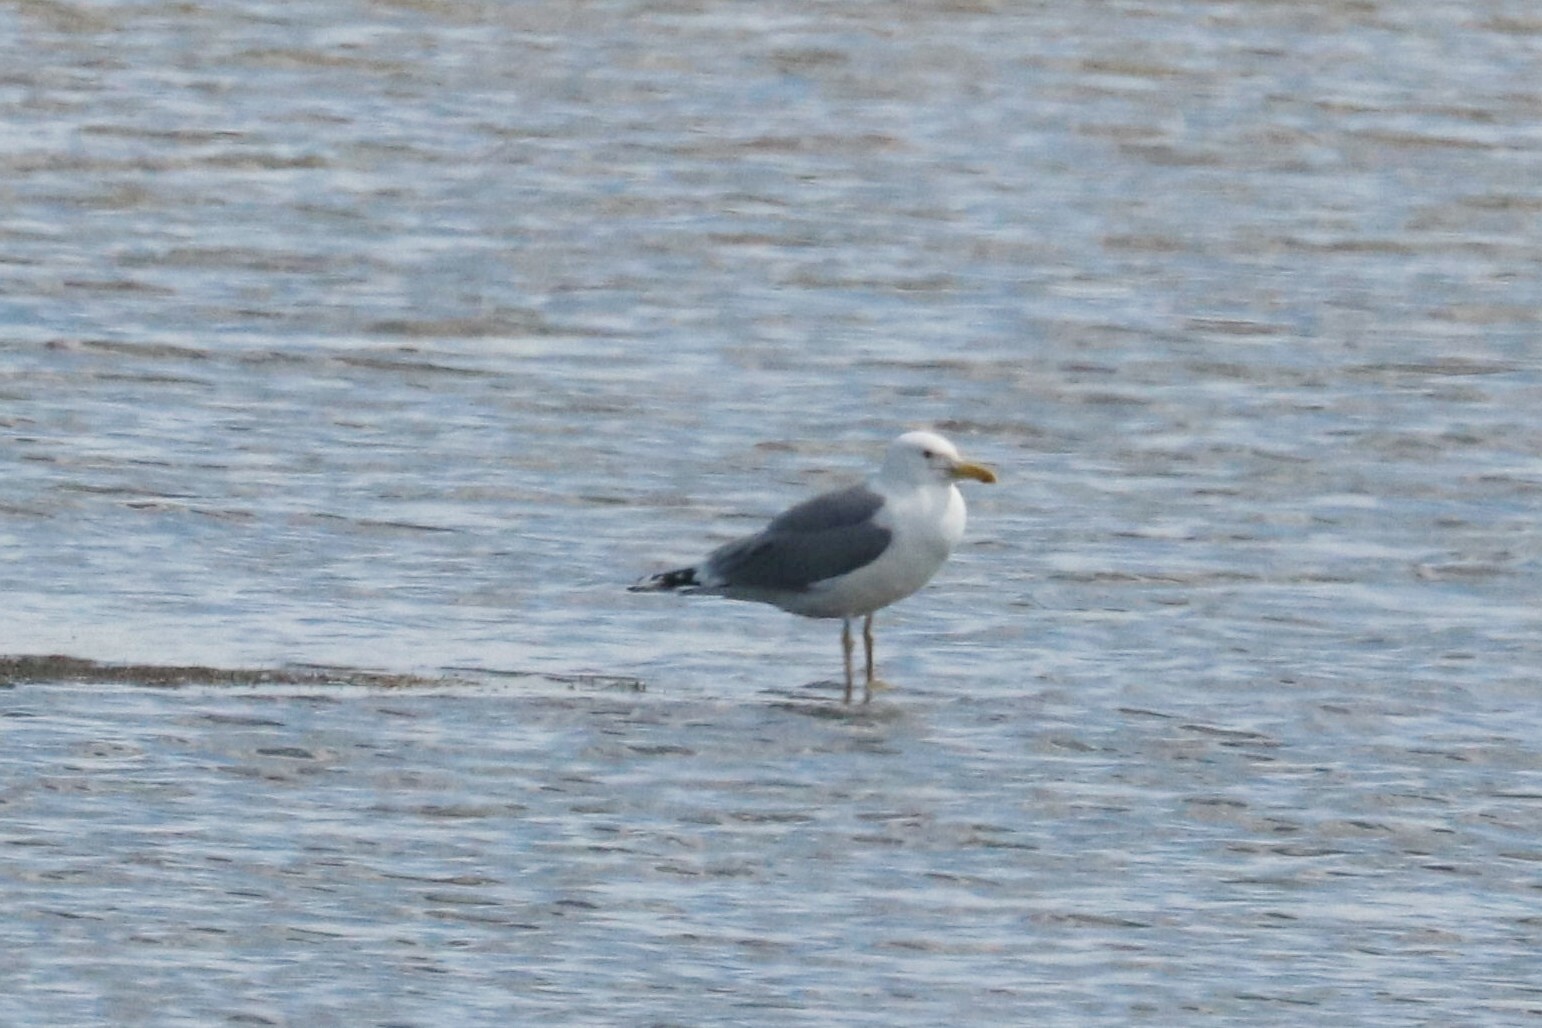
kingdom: Animalia
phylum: Chordata
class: Aves
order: Charadriiformes
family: Laridae
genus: Larus
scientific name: Larus cachinnans
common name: Caspian gull
